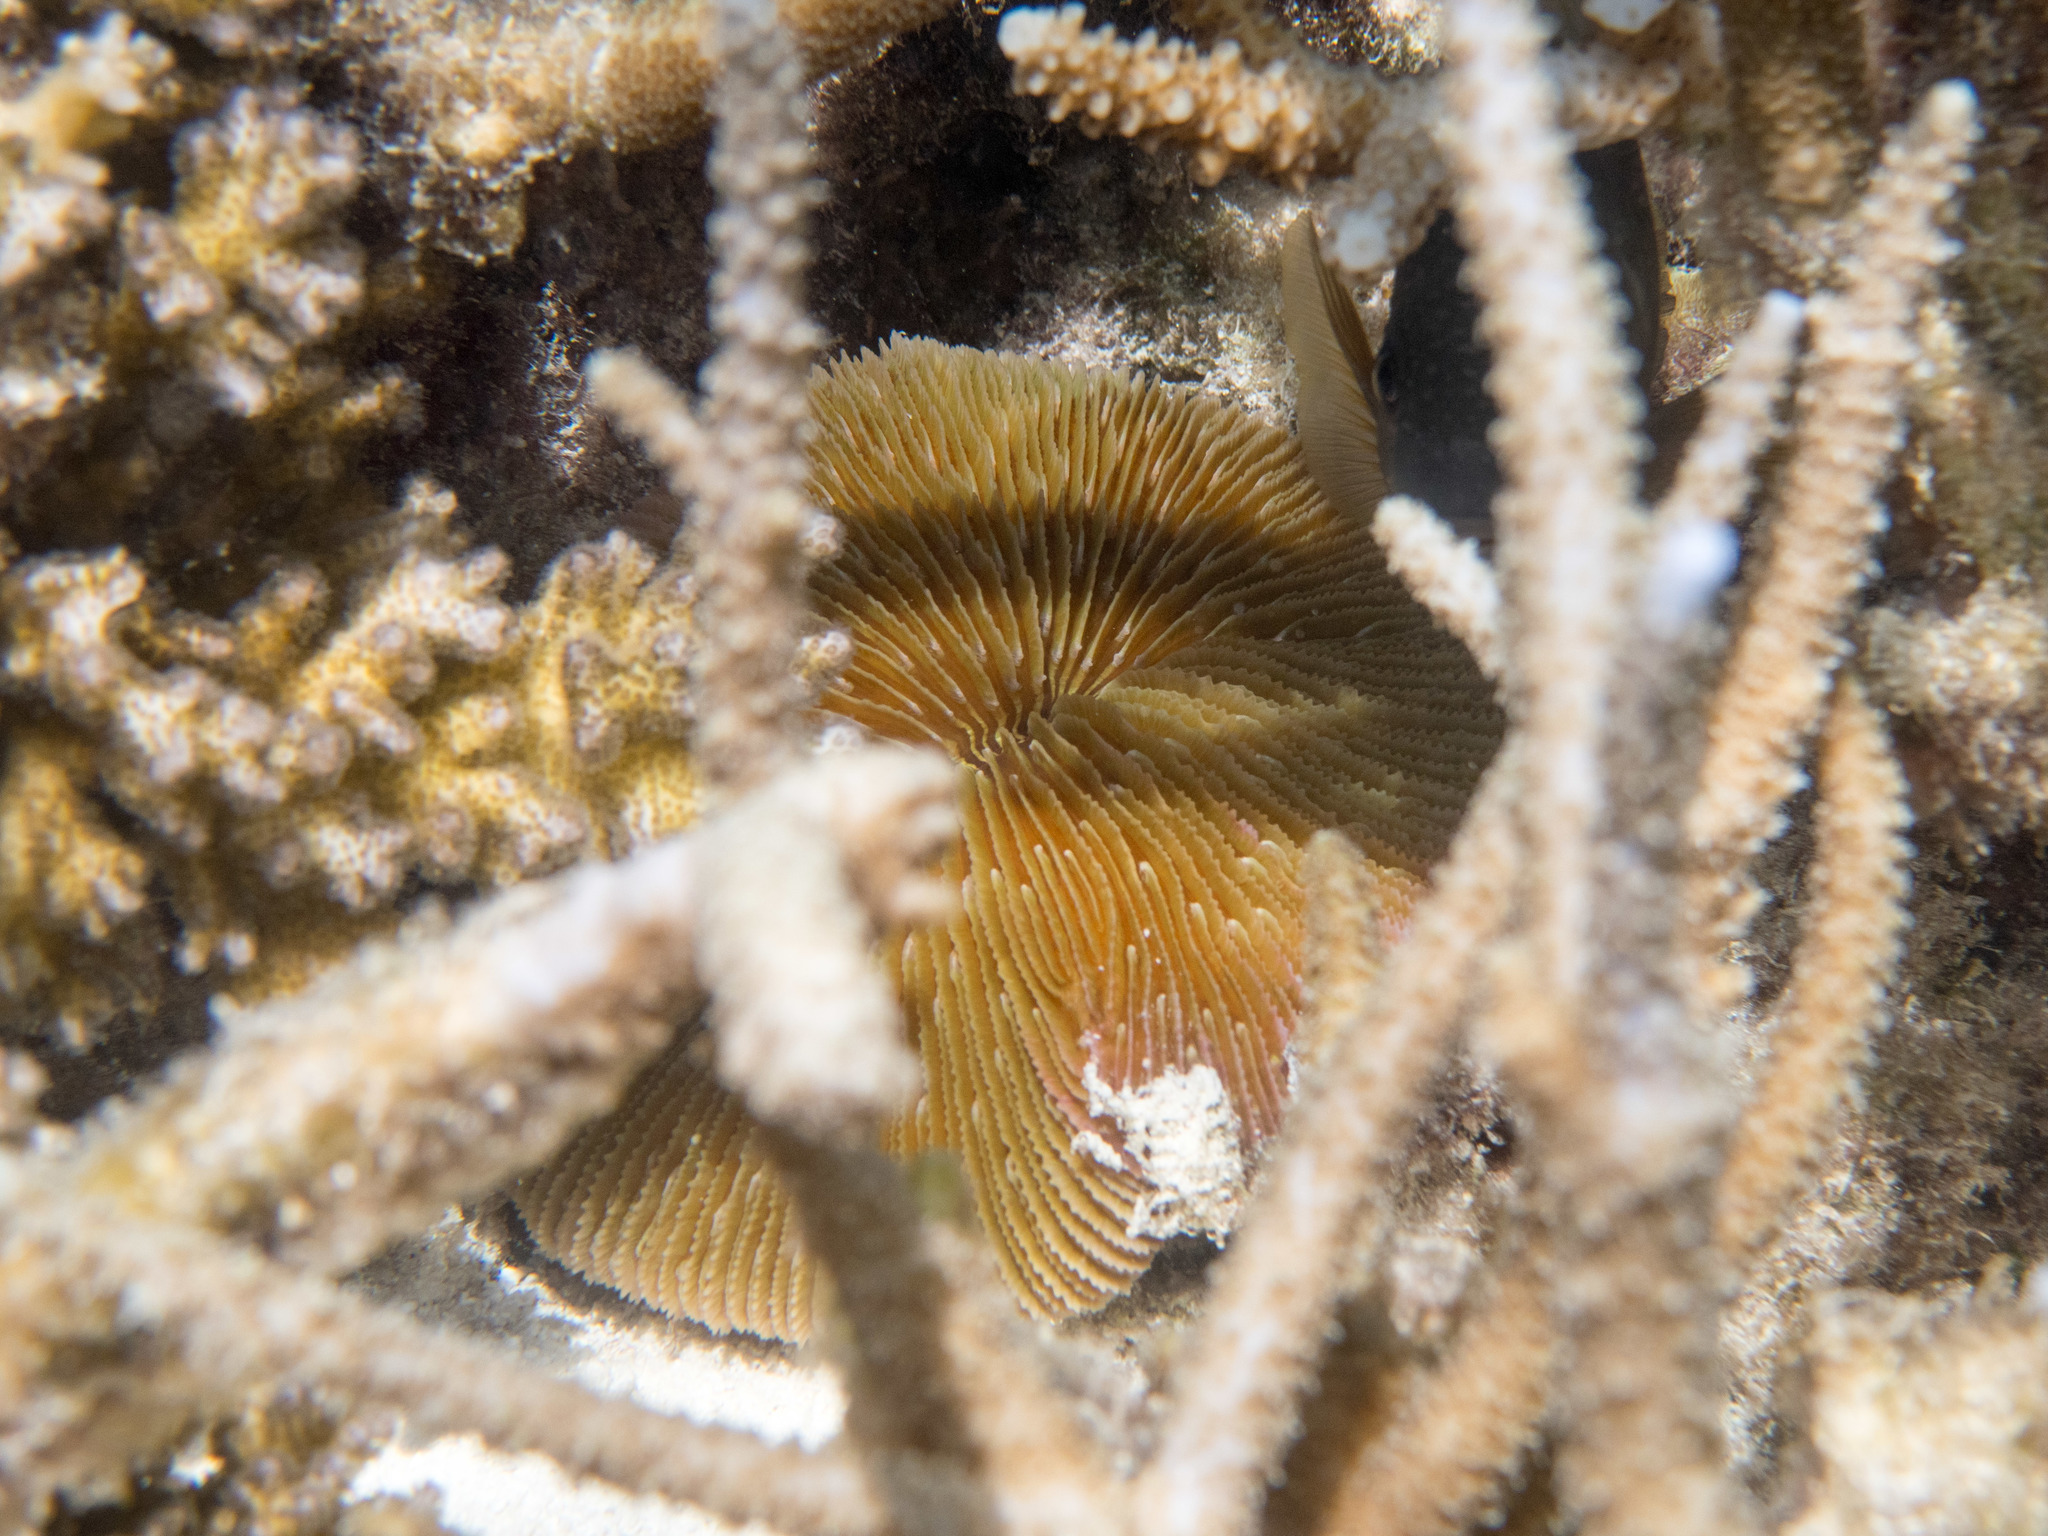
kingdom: Animalia
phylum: Cnidaria
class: Anthozoa
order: Scleractinia
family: Fungiidae
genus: Fungia
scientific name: Fungia fungites
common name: Mushroom coral
